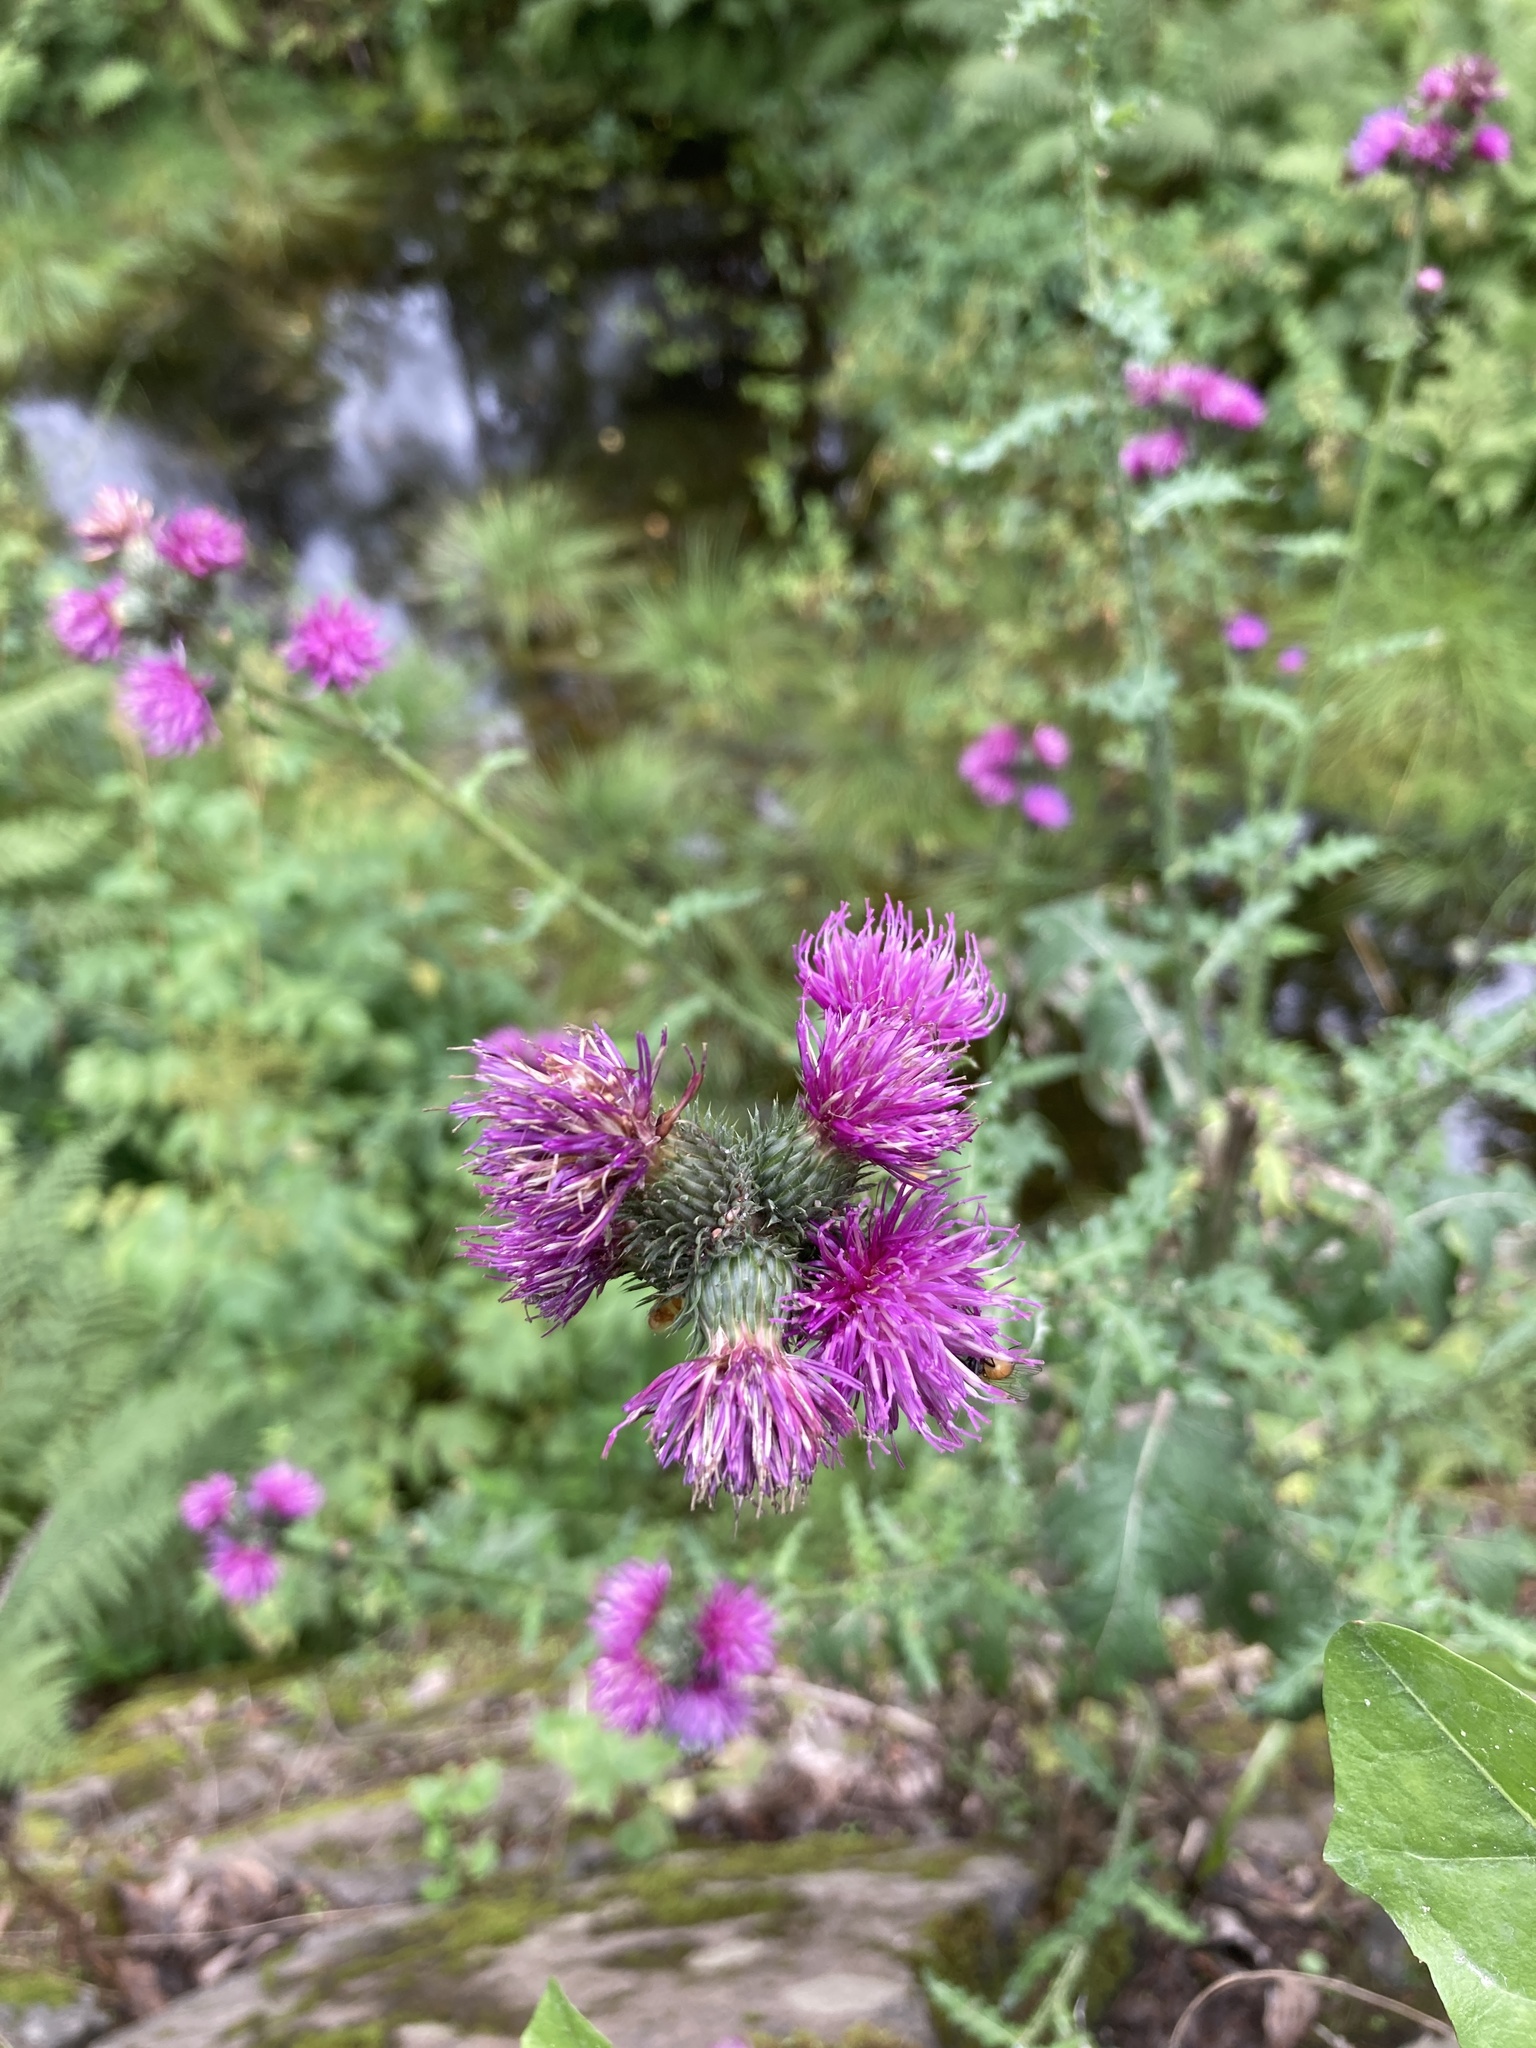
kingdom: Plantae
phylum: Tracheophyta
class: Magnoliopsida
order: Asterales
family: Asteraceae
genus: Carduus
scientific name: Carduus crispus
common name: Welted thistle
